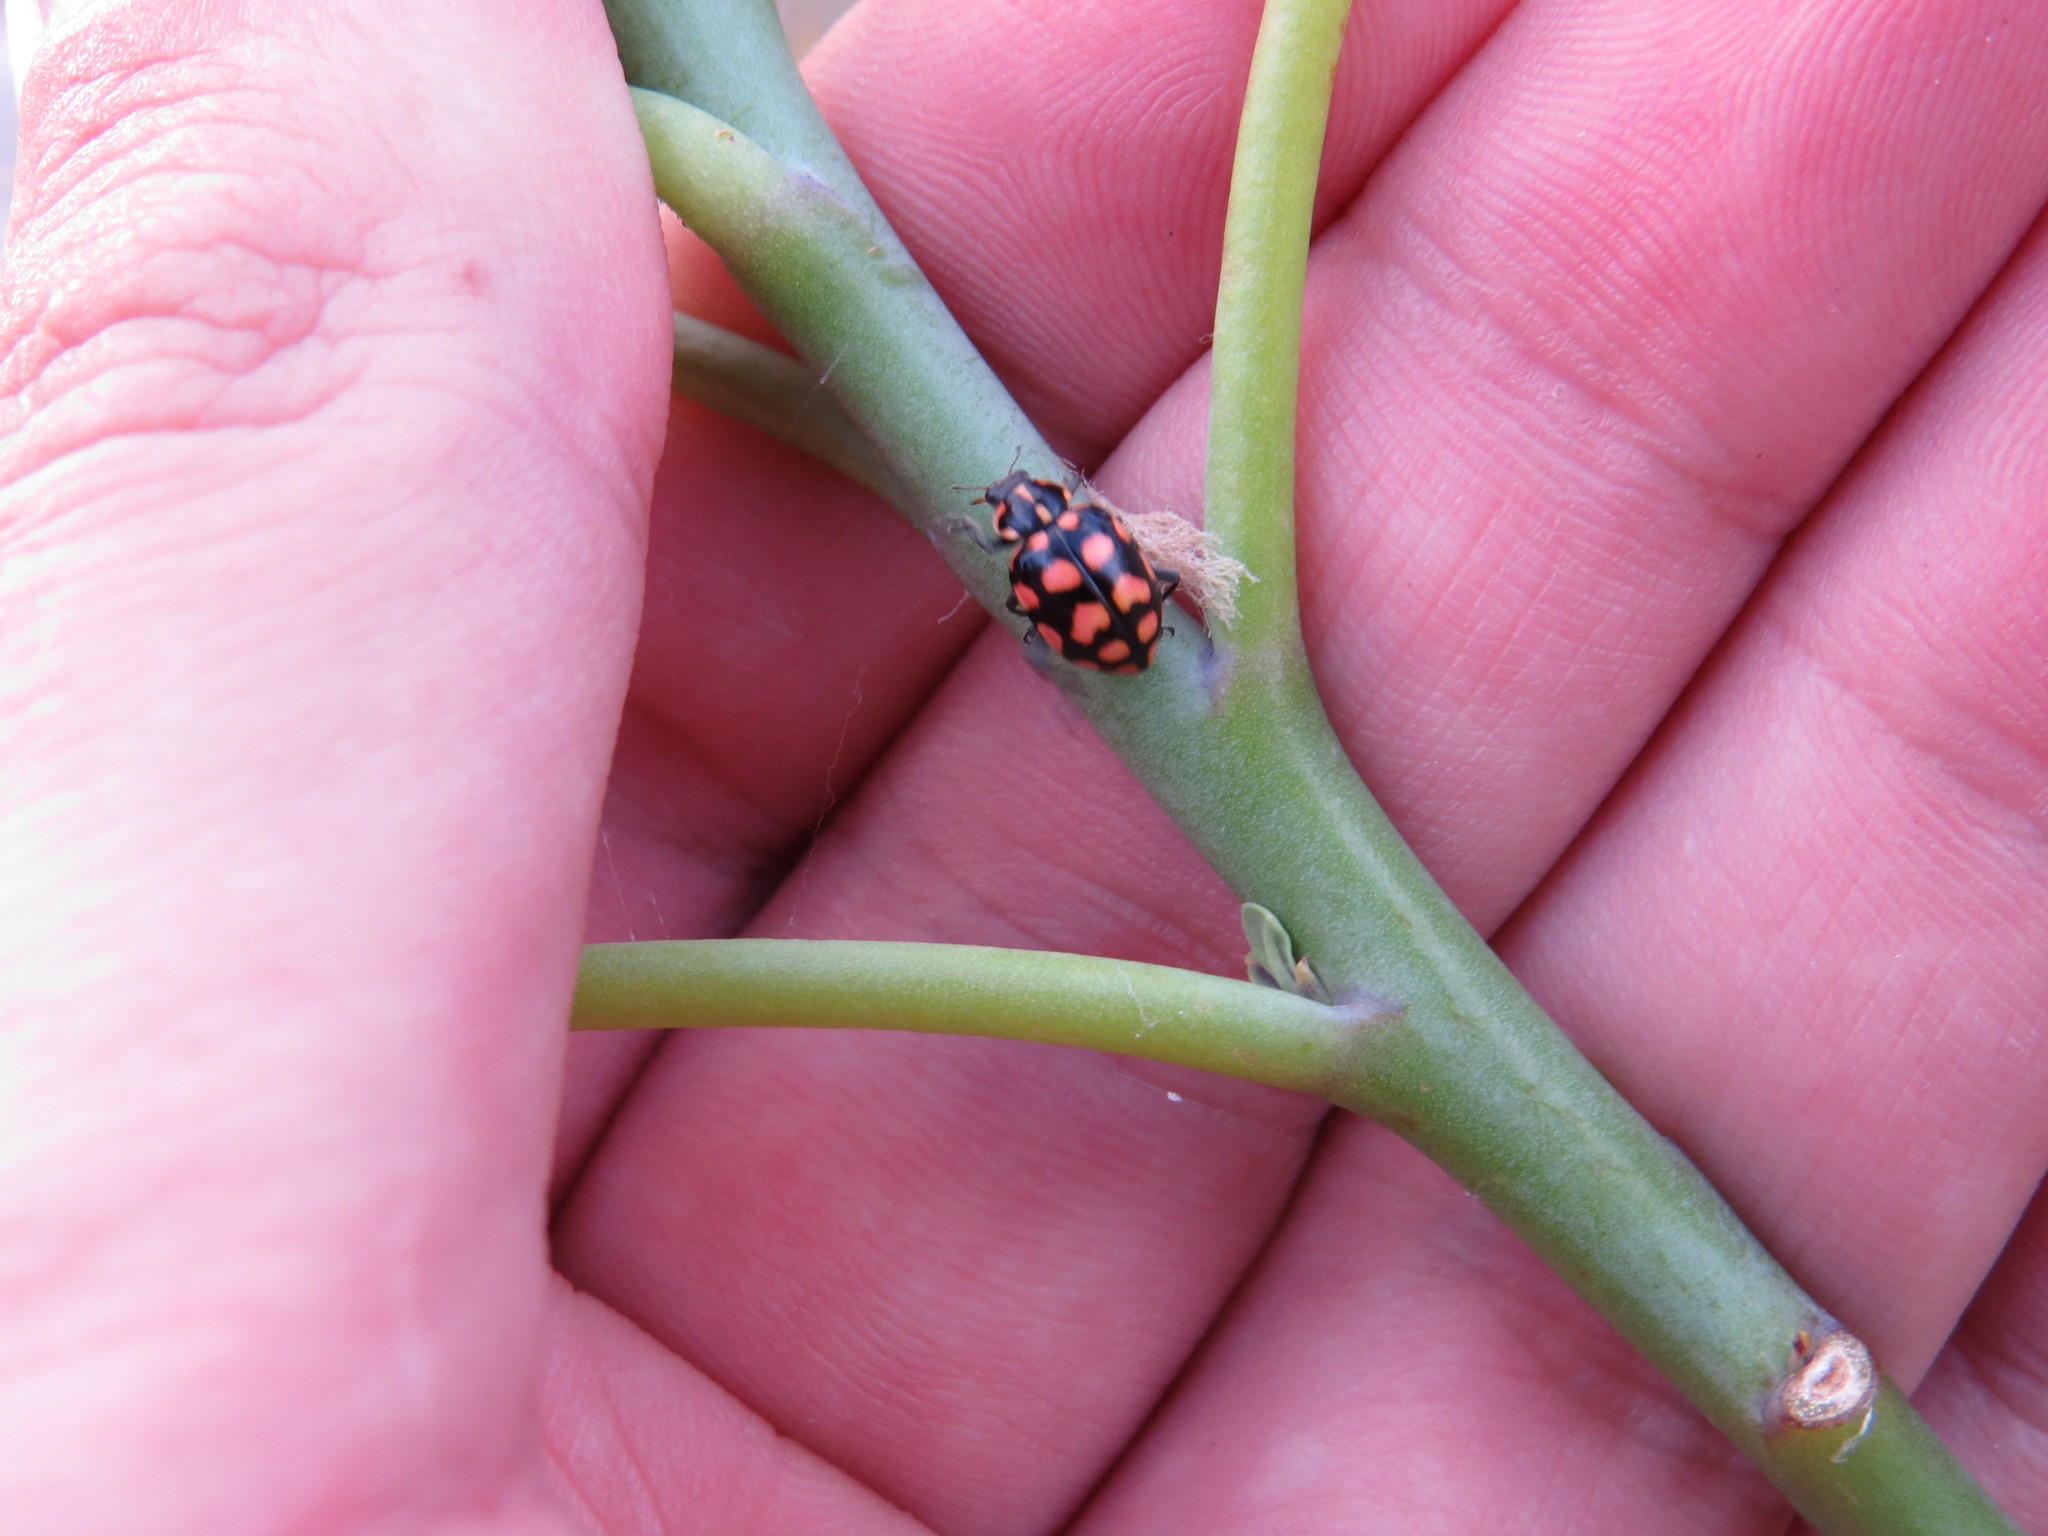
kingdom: Animalia
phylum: Arthropoda
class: Insecta
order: Coleoptera
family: Coccinellidae
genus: Coleomegilla
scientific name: Coleomegilla
